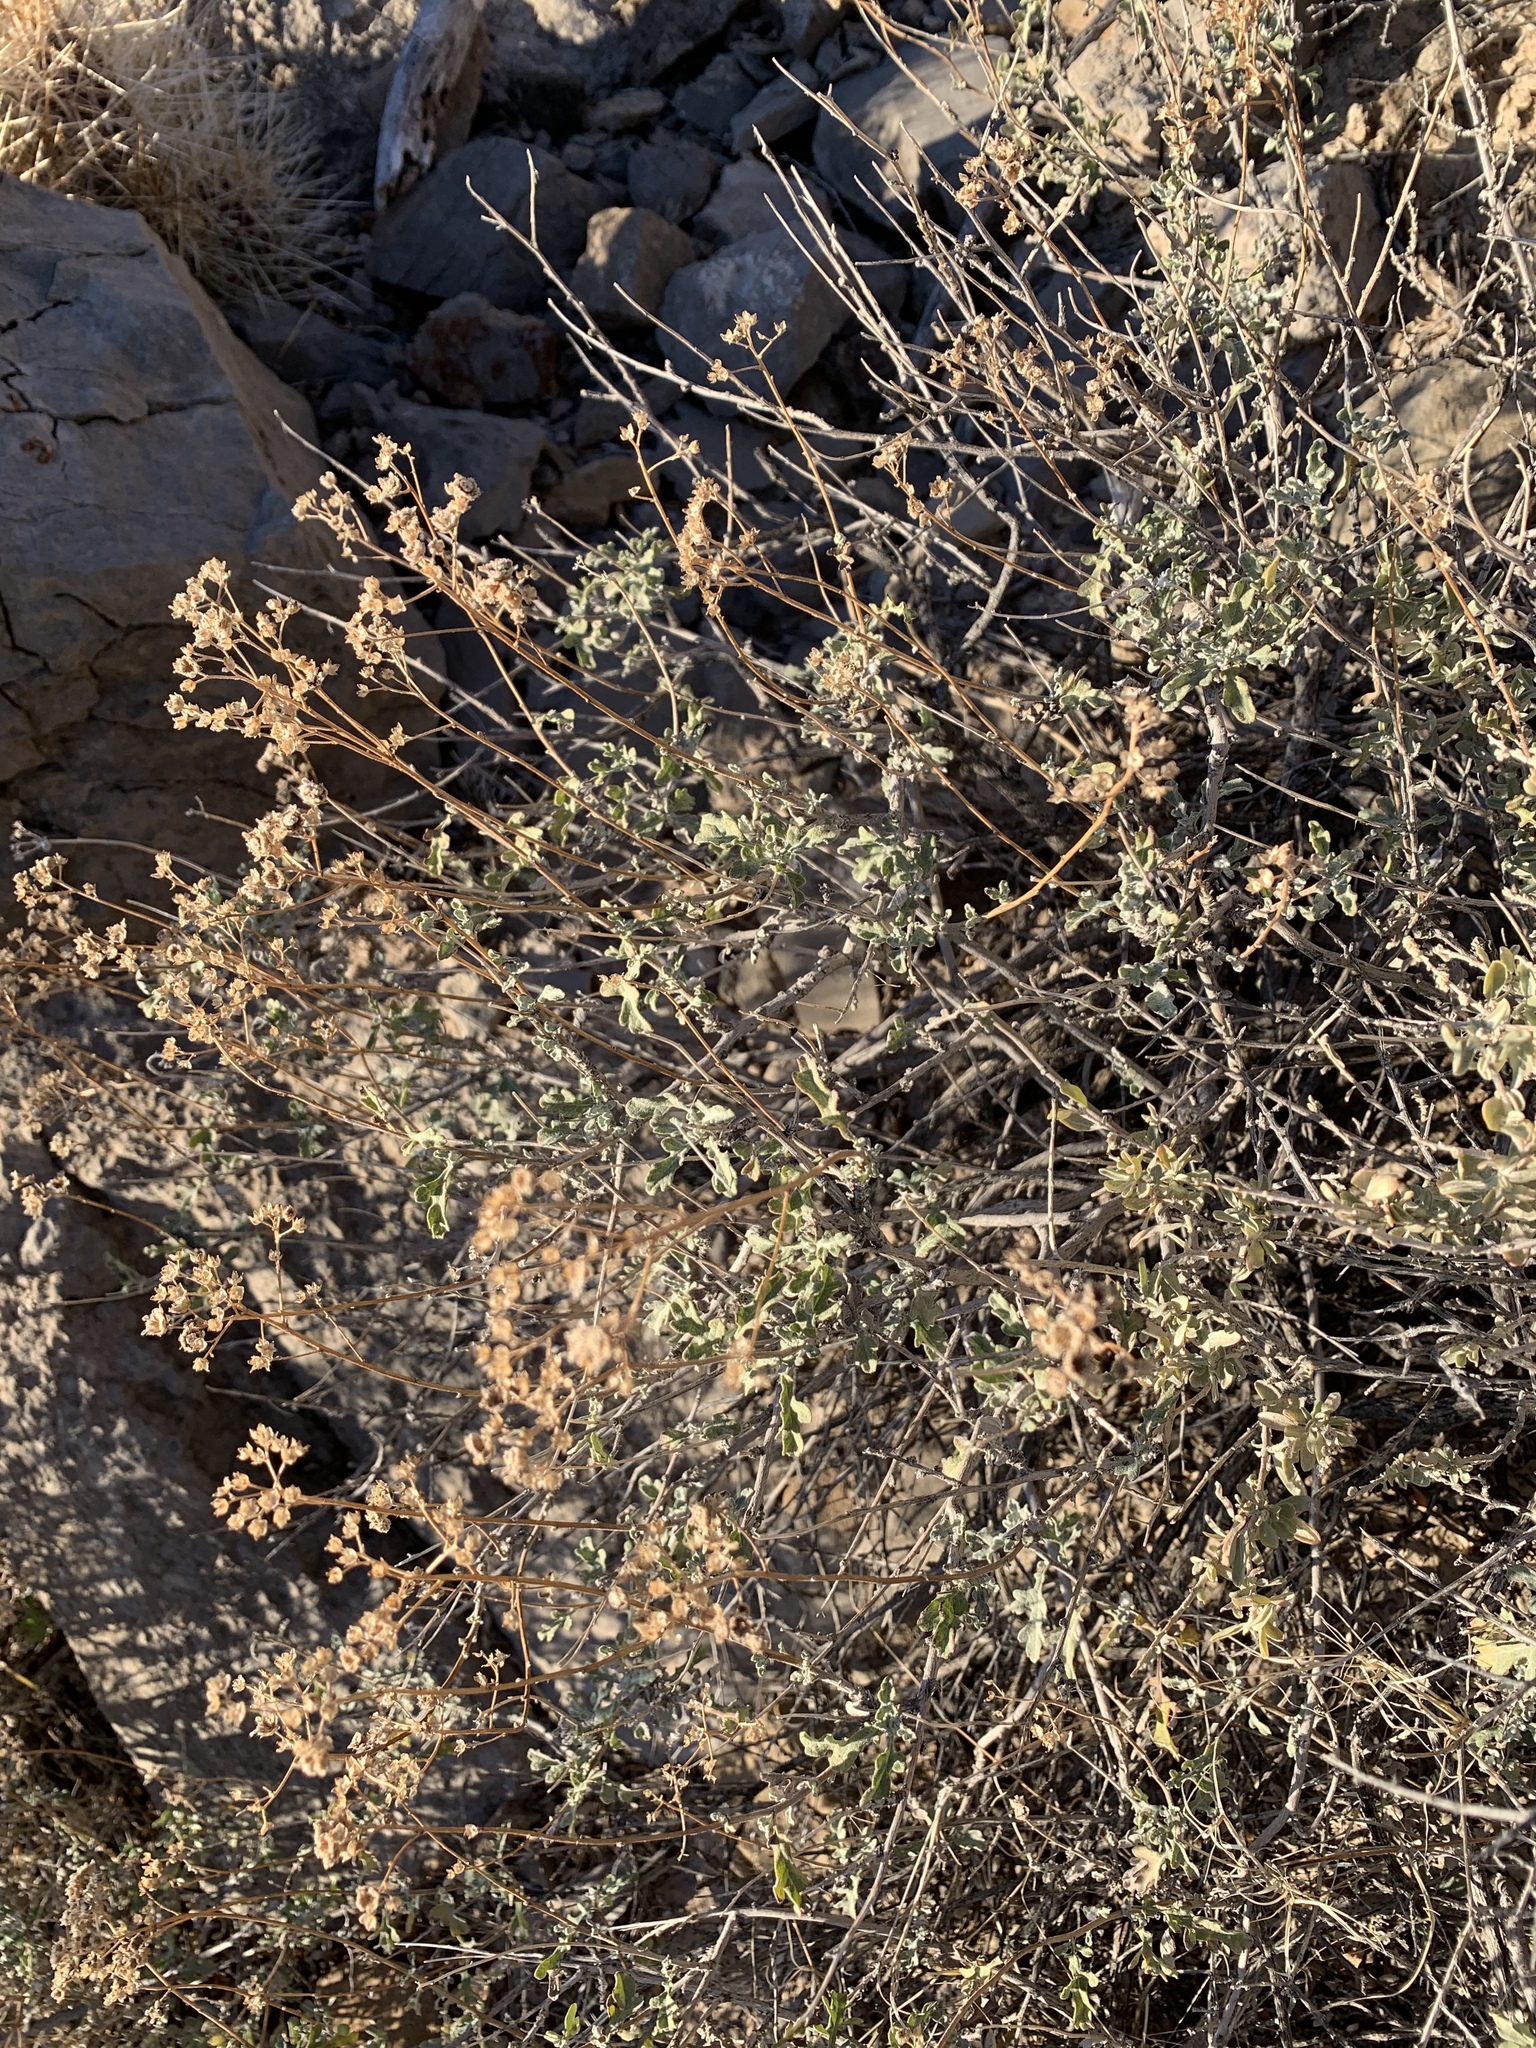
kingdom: Plantae
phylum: Tracheophyta
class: Magnoliopsida
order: Asterales
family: Asteraceae
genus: Parthenium
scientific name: Parthenium incanum
